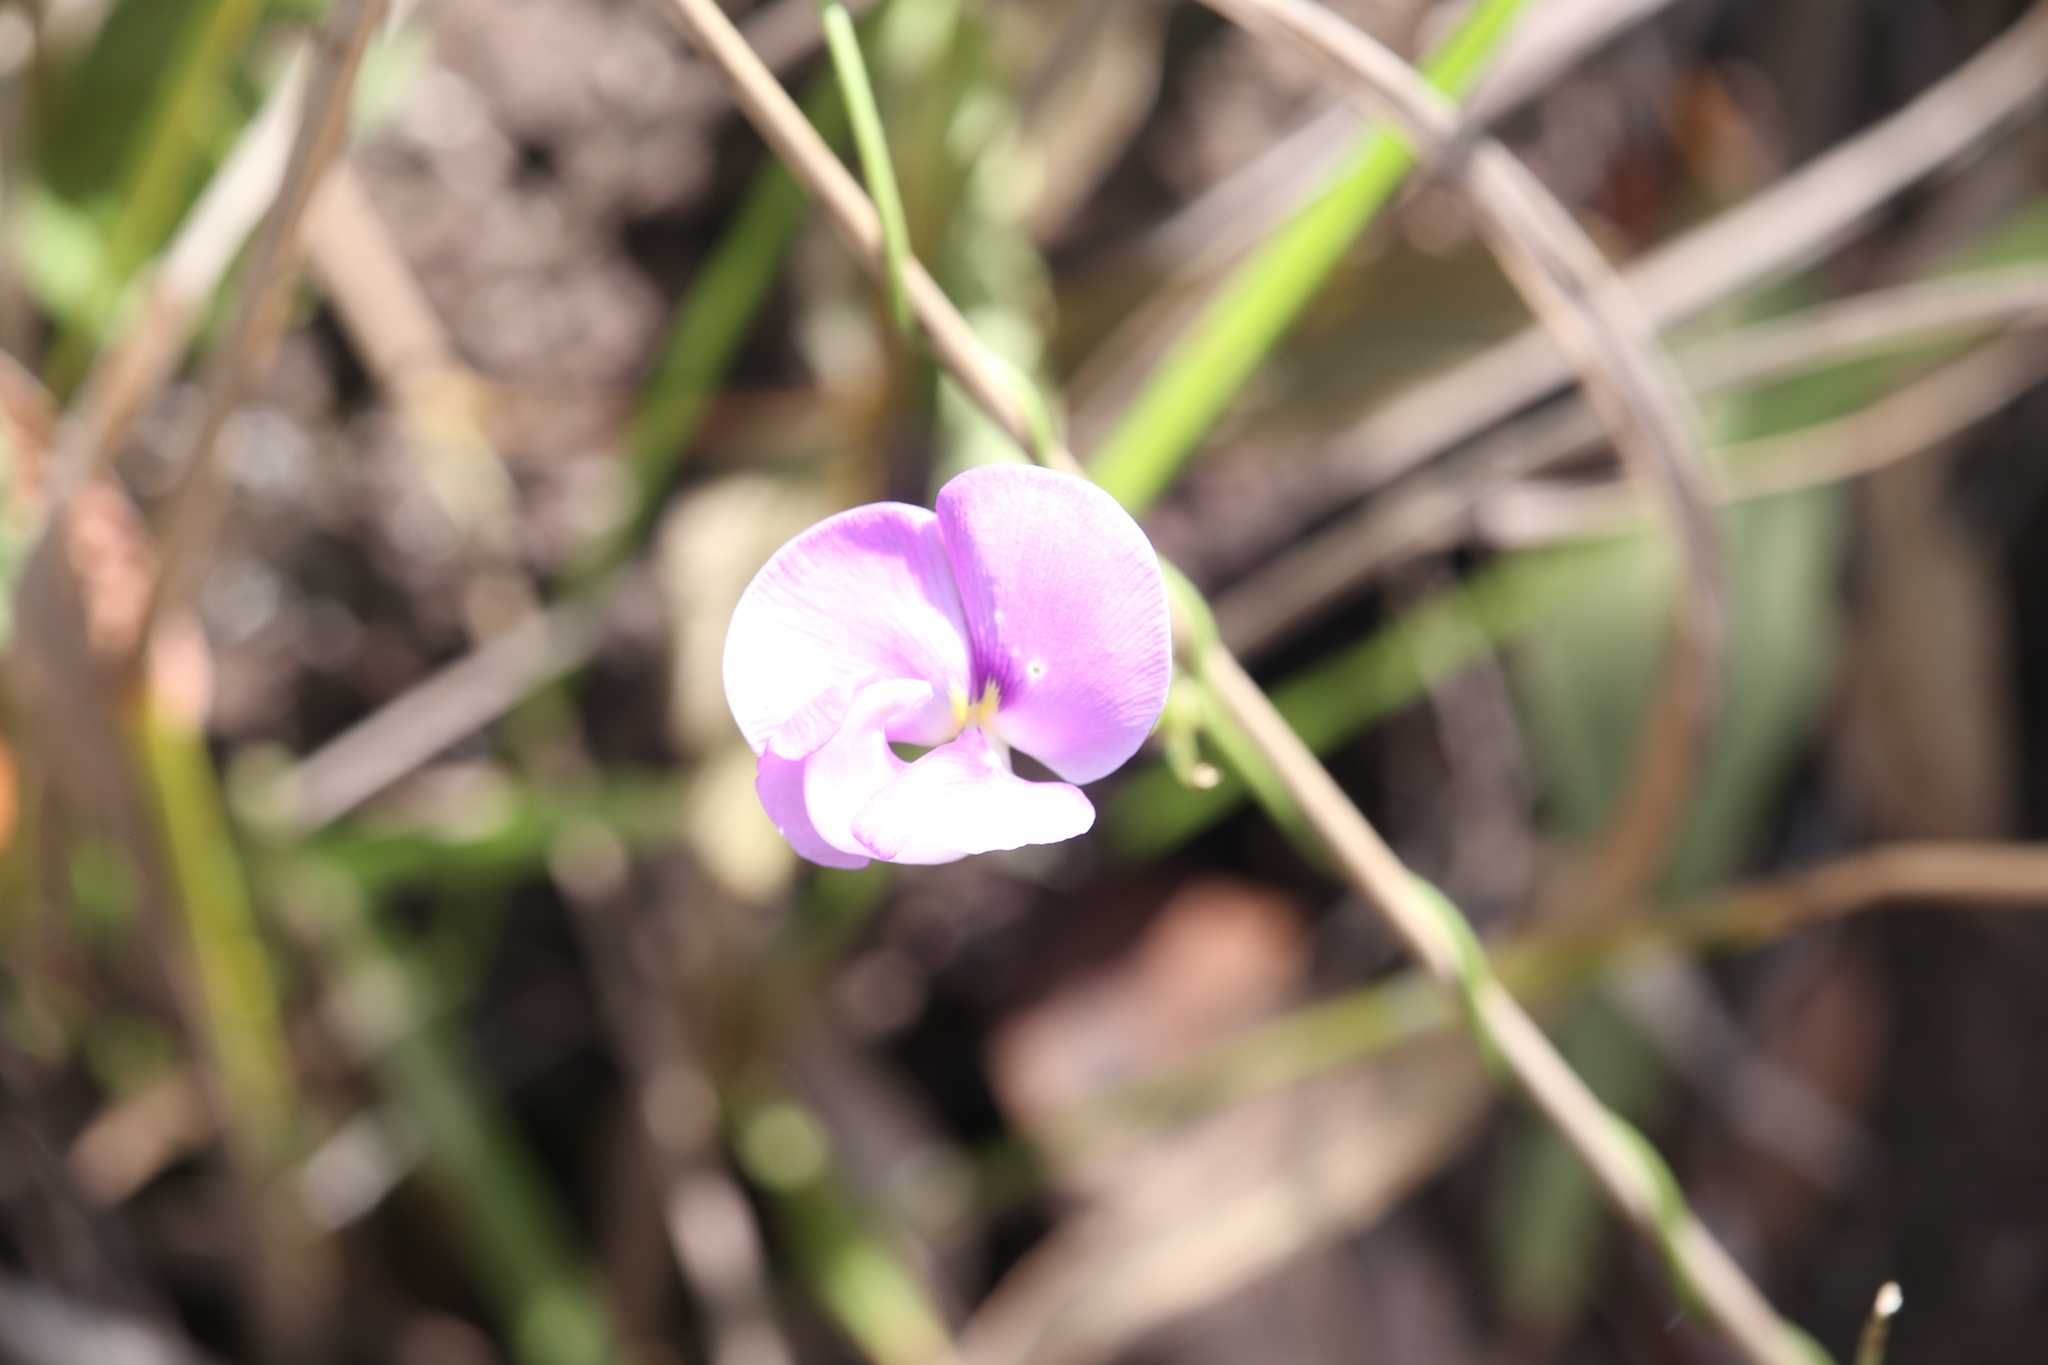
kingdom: Plantae
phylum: Tracheophyta
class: Magnoliopsida
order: Fabales
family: Fabaceae
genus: Vigna
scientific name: Vigna vexillata
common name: Zombi pea
